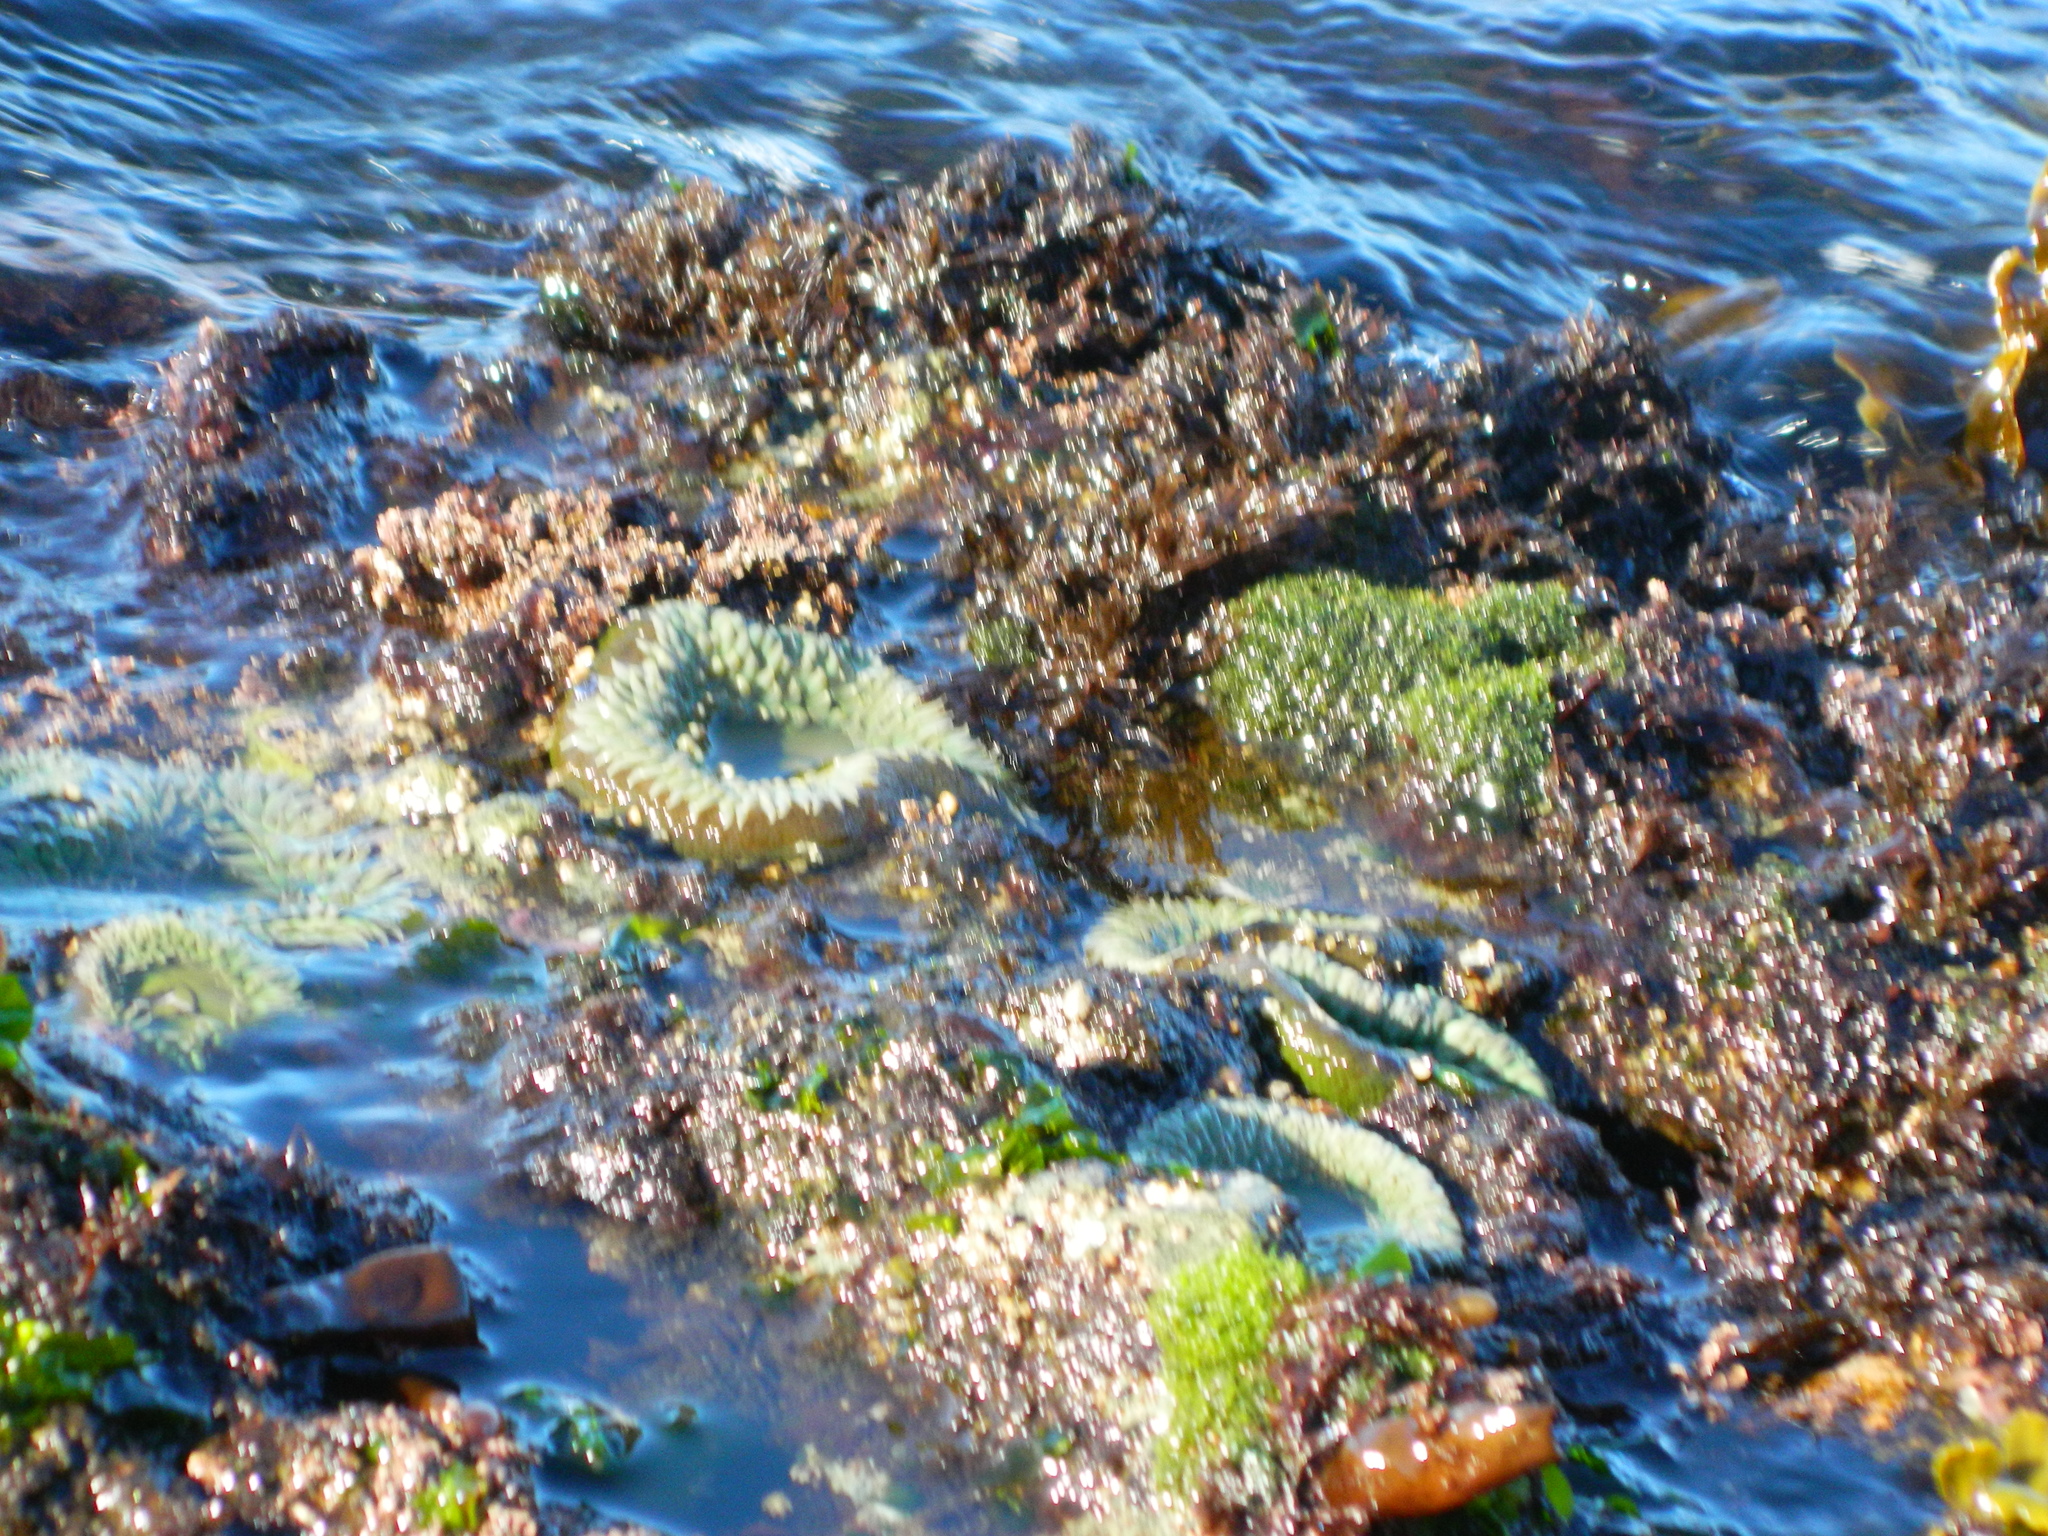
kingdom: Animalia
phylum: Cnidaria
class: Anthozoa
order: Actiniaria
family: Actiniidae
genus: Anthopleura
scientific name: Anthopleura xanthogrammica
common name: Giant green anemone
